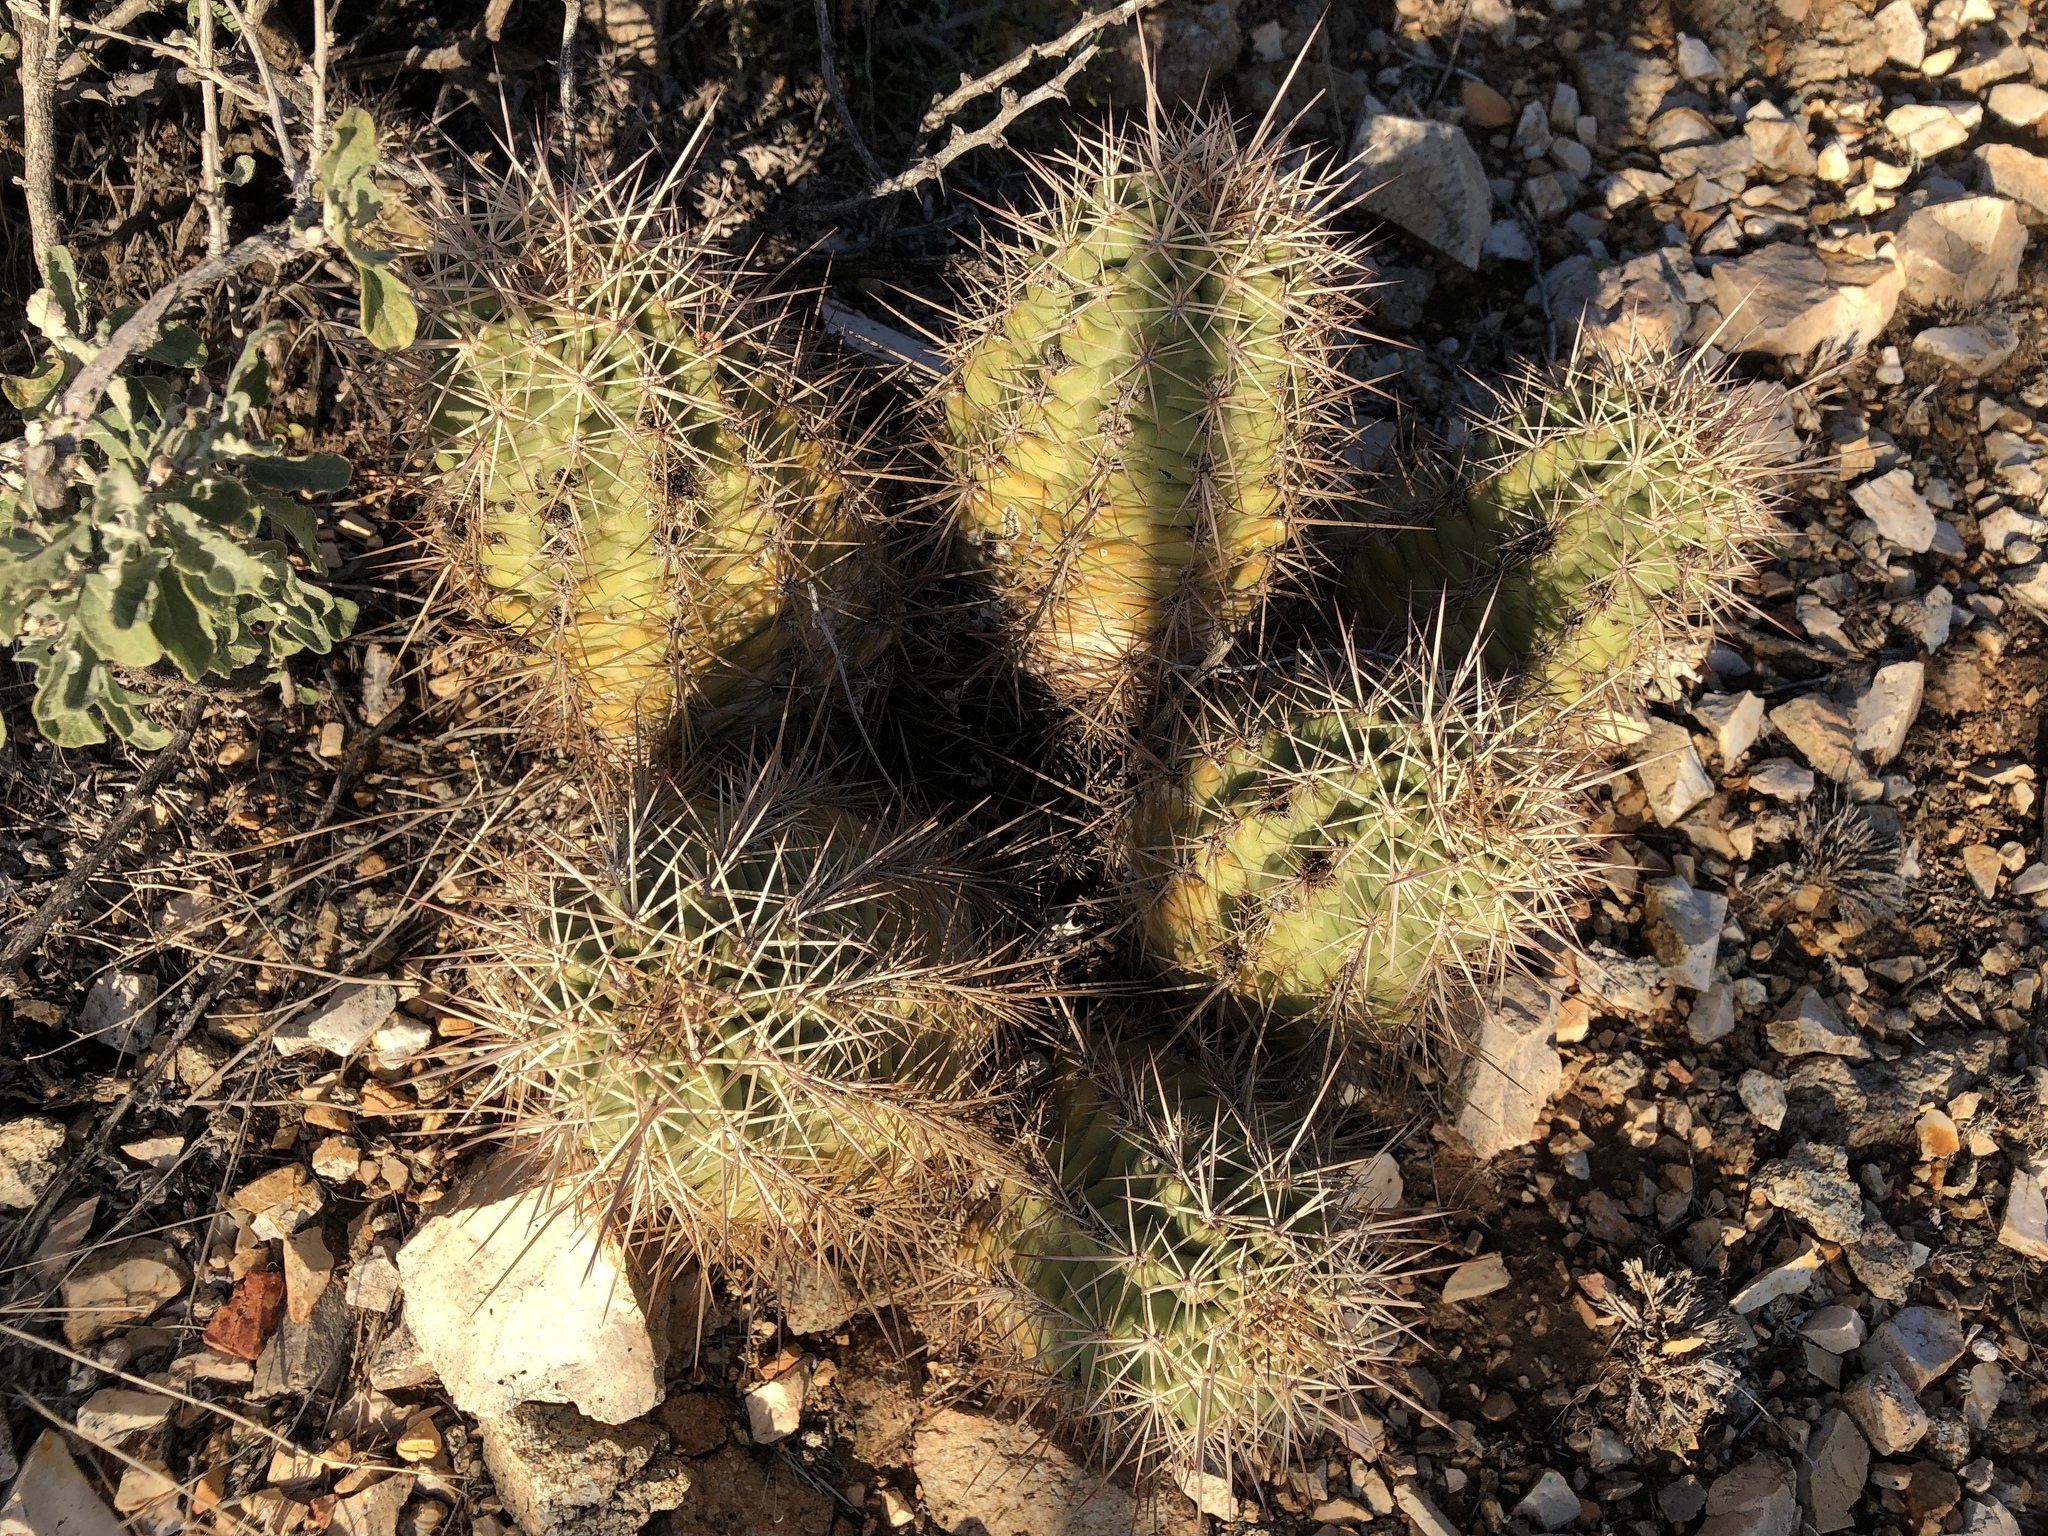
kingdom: Plantae
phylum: Tracheophyta
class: Magnoliopsida
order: Caryophyllales
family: Cactaceae
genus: Echinocereus
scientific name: Echinocereus coccineus
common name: Scarlet hedgehog cactus
